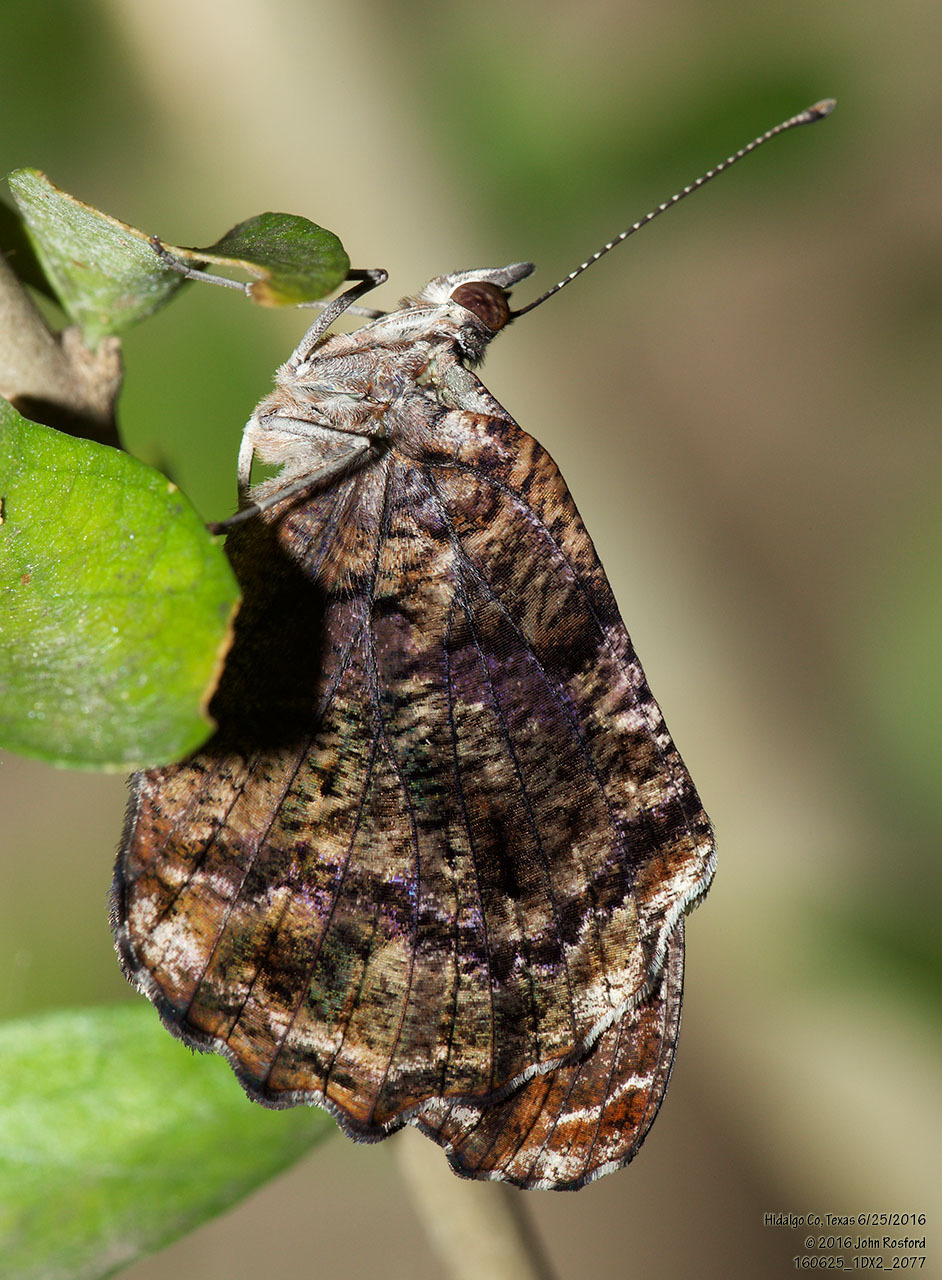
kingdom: Animalia
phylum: Arthropoda
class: Insecta
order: Lepidoptera
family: Nymphalidae
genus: Myscelia
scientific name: Myscelia ethusa
